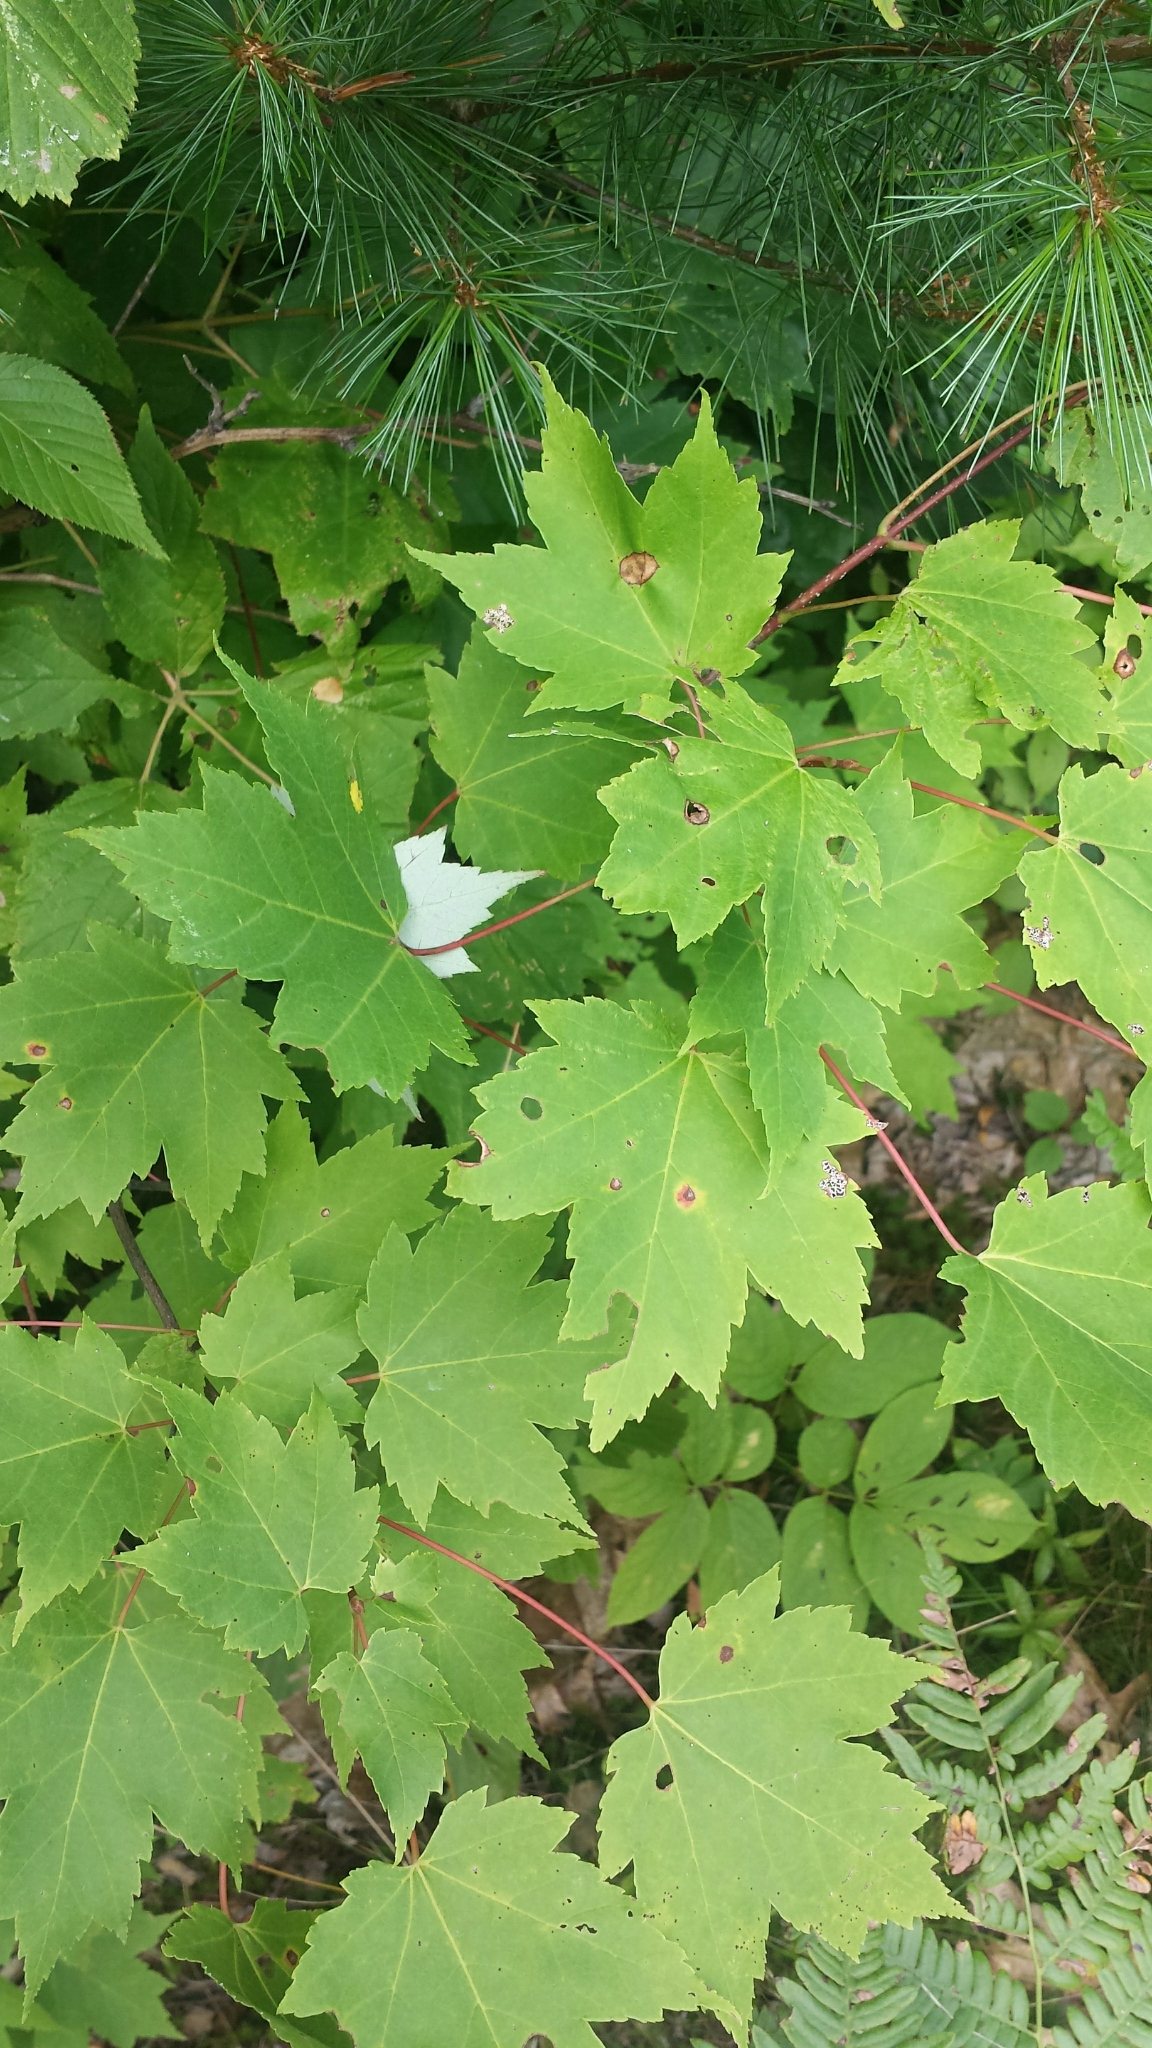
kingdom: Plantae
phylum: Tracheophyta
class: Magnoliopsida
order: Sapindales
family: Sapindaceae
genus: Acer
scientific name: Acer rubrum
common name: Red maple
